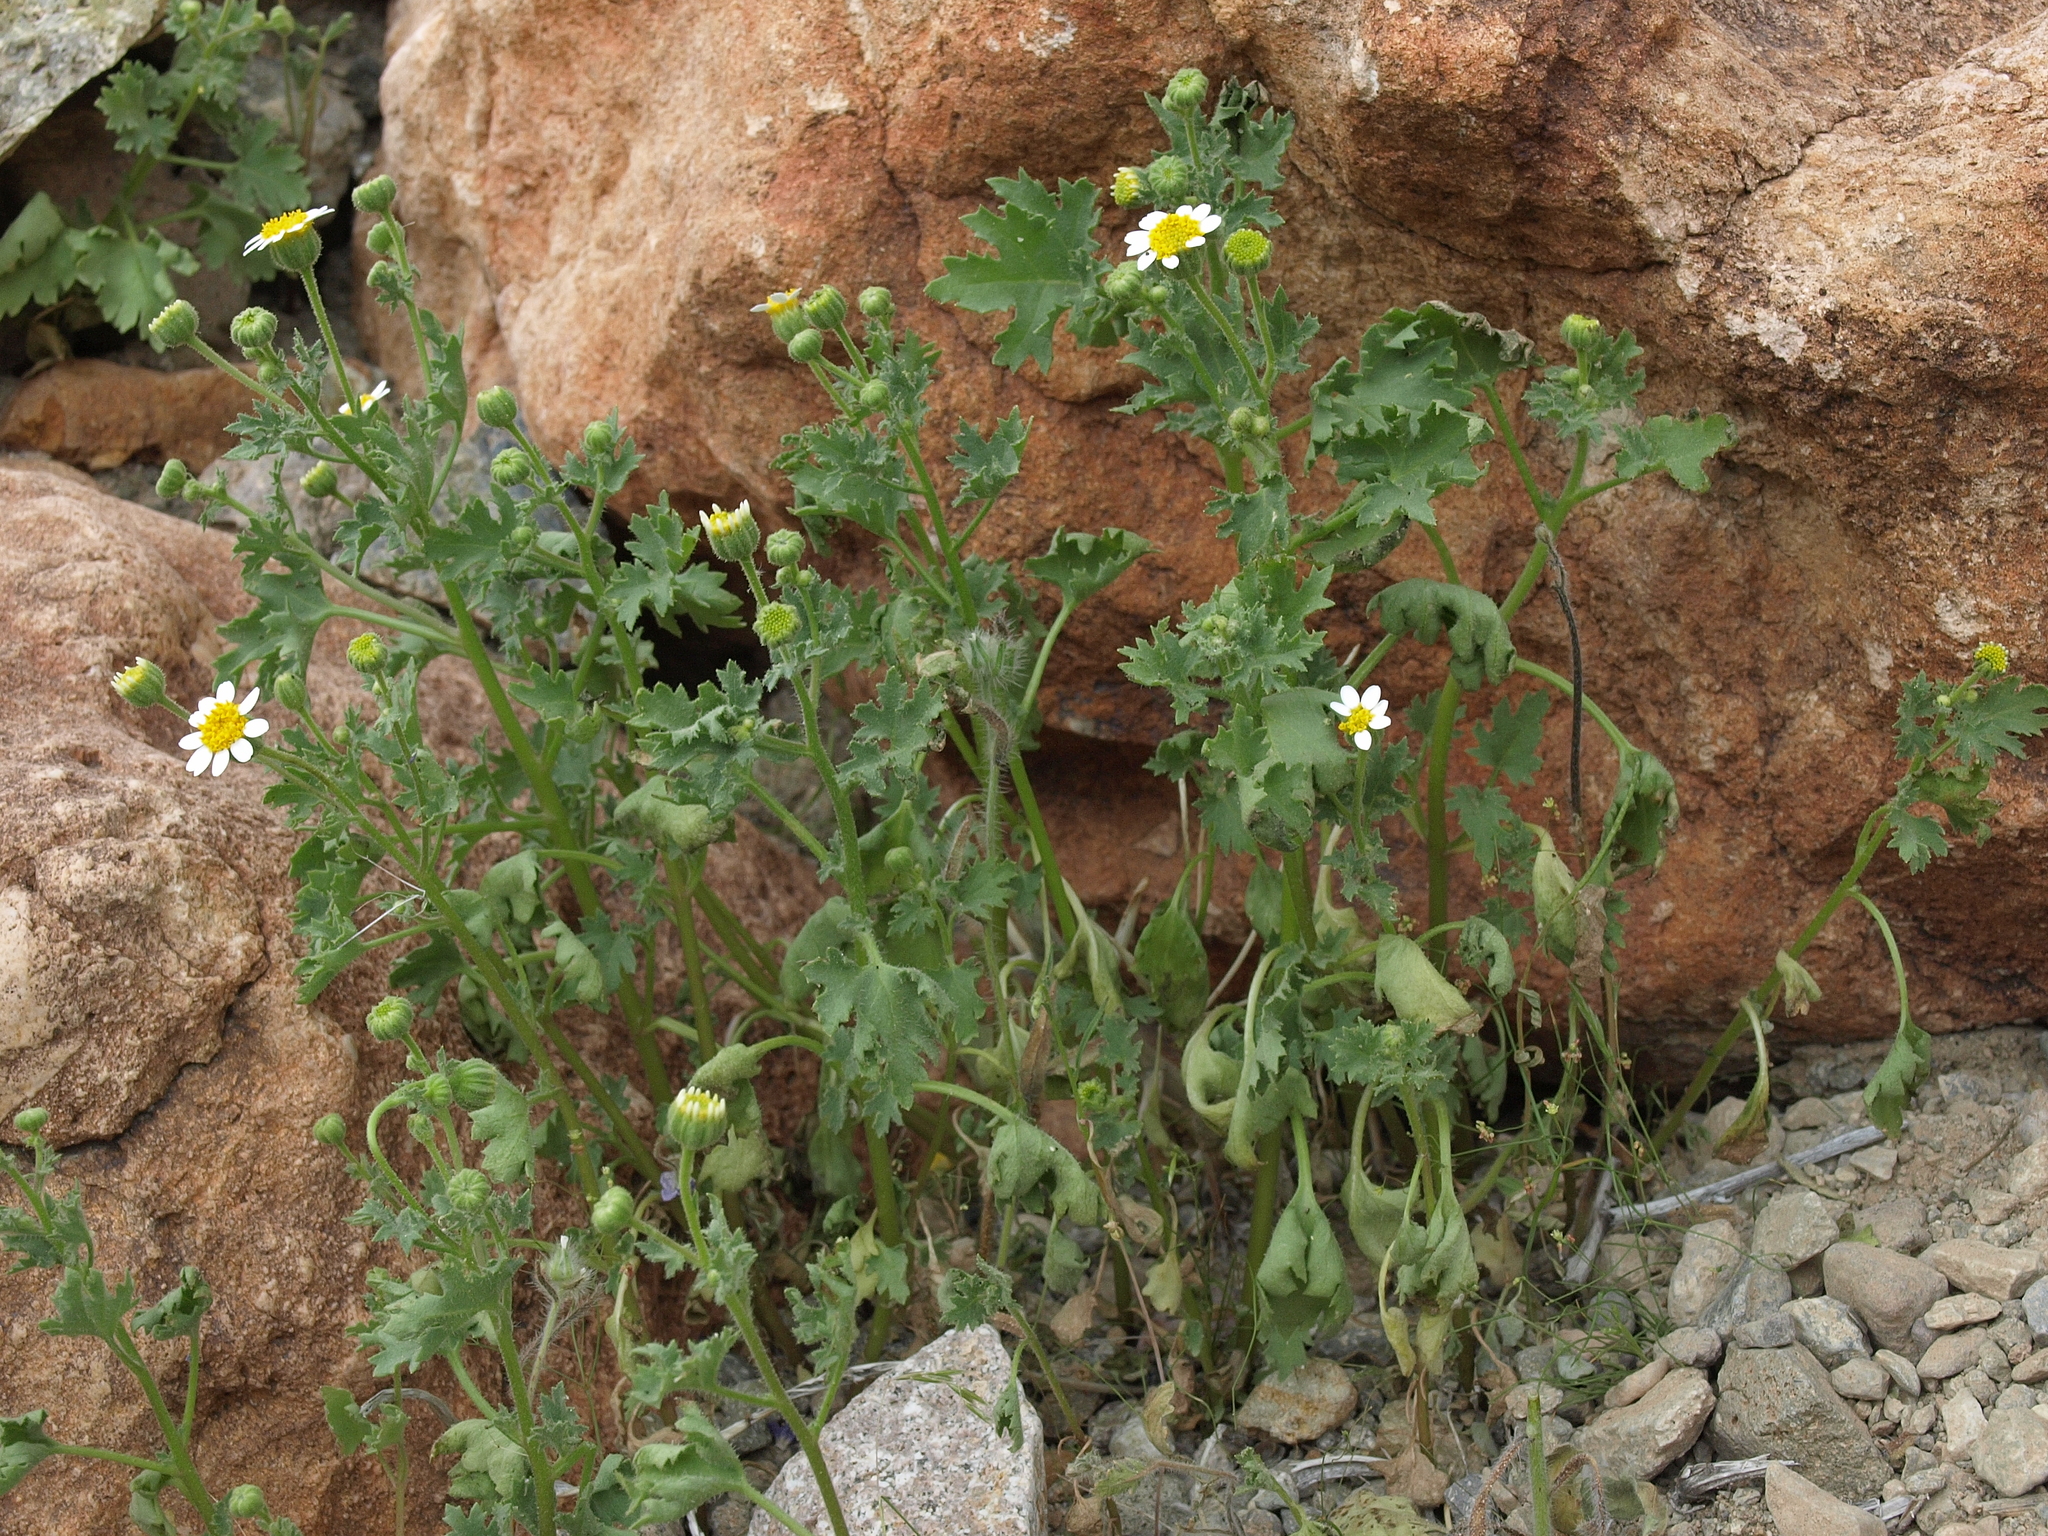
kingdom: Plantae
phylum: Tracheophyta
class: Magnoliopsida
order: Asterales
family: Asteraceae
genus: Laphamia
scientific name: Laphamia emoryi
